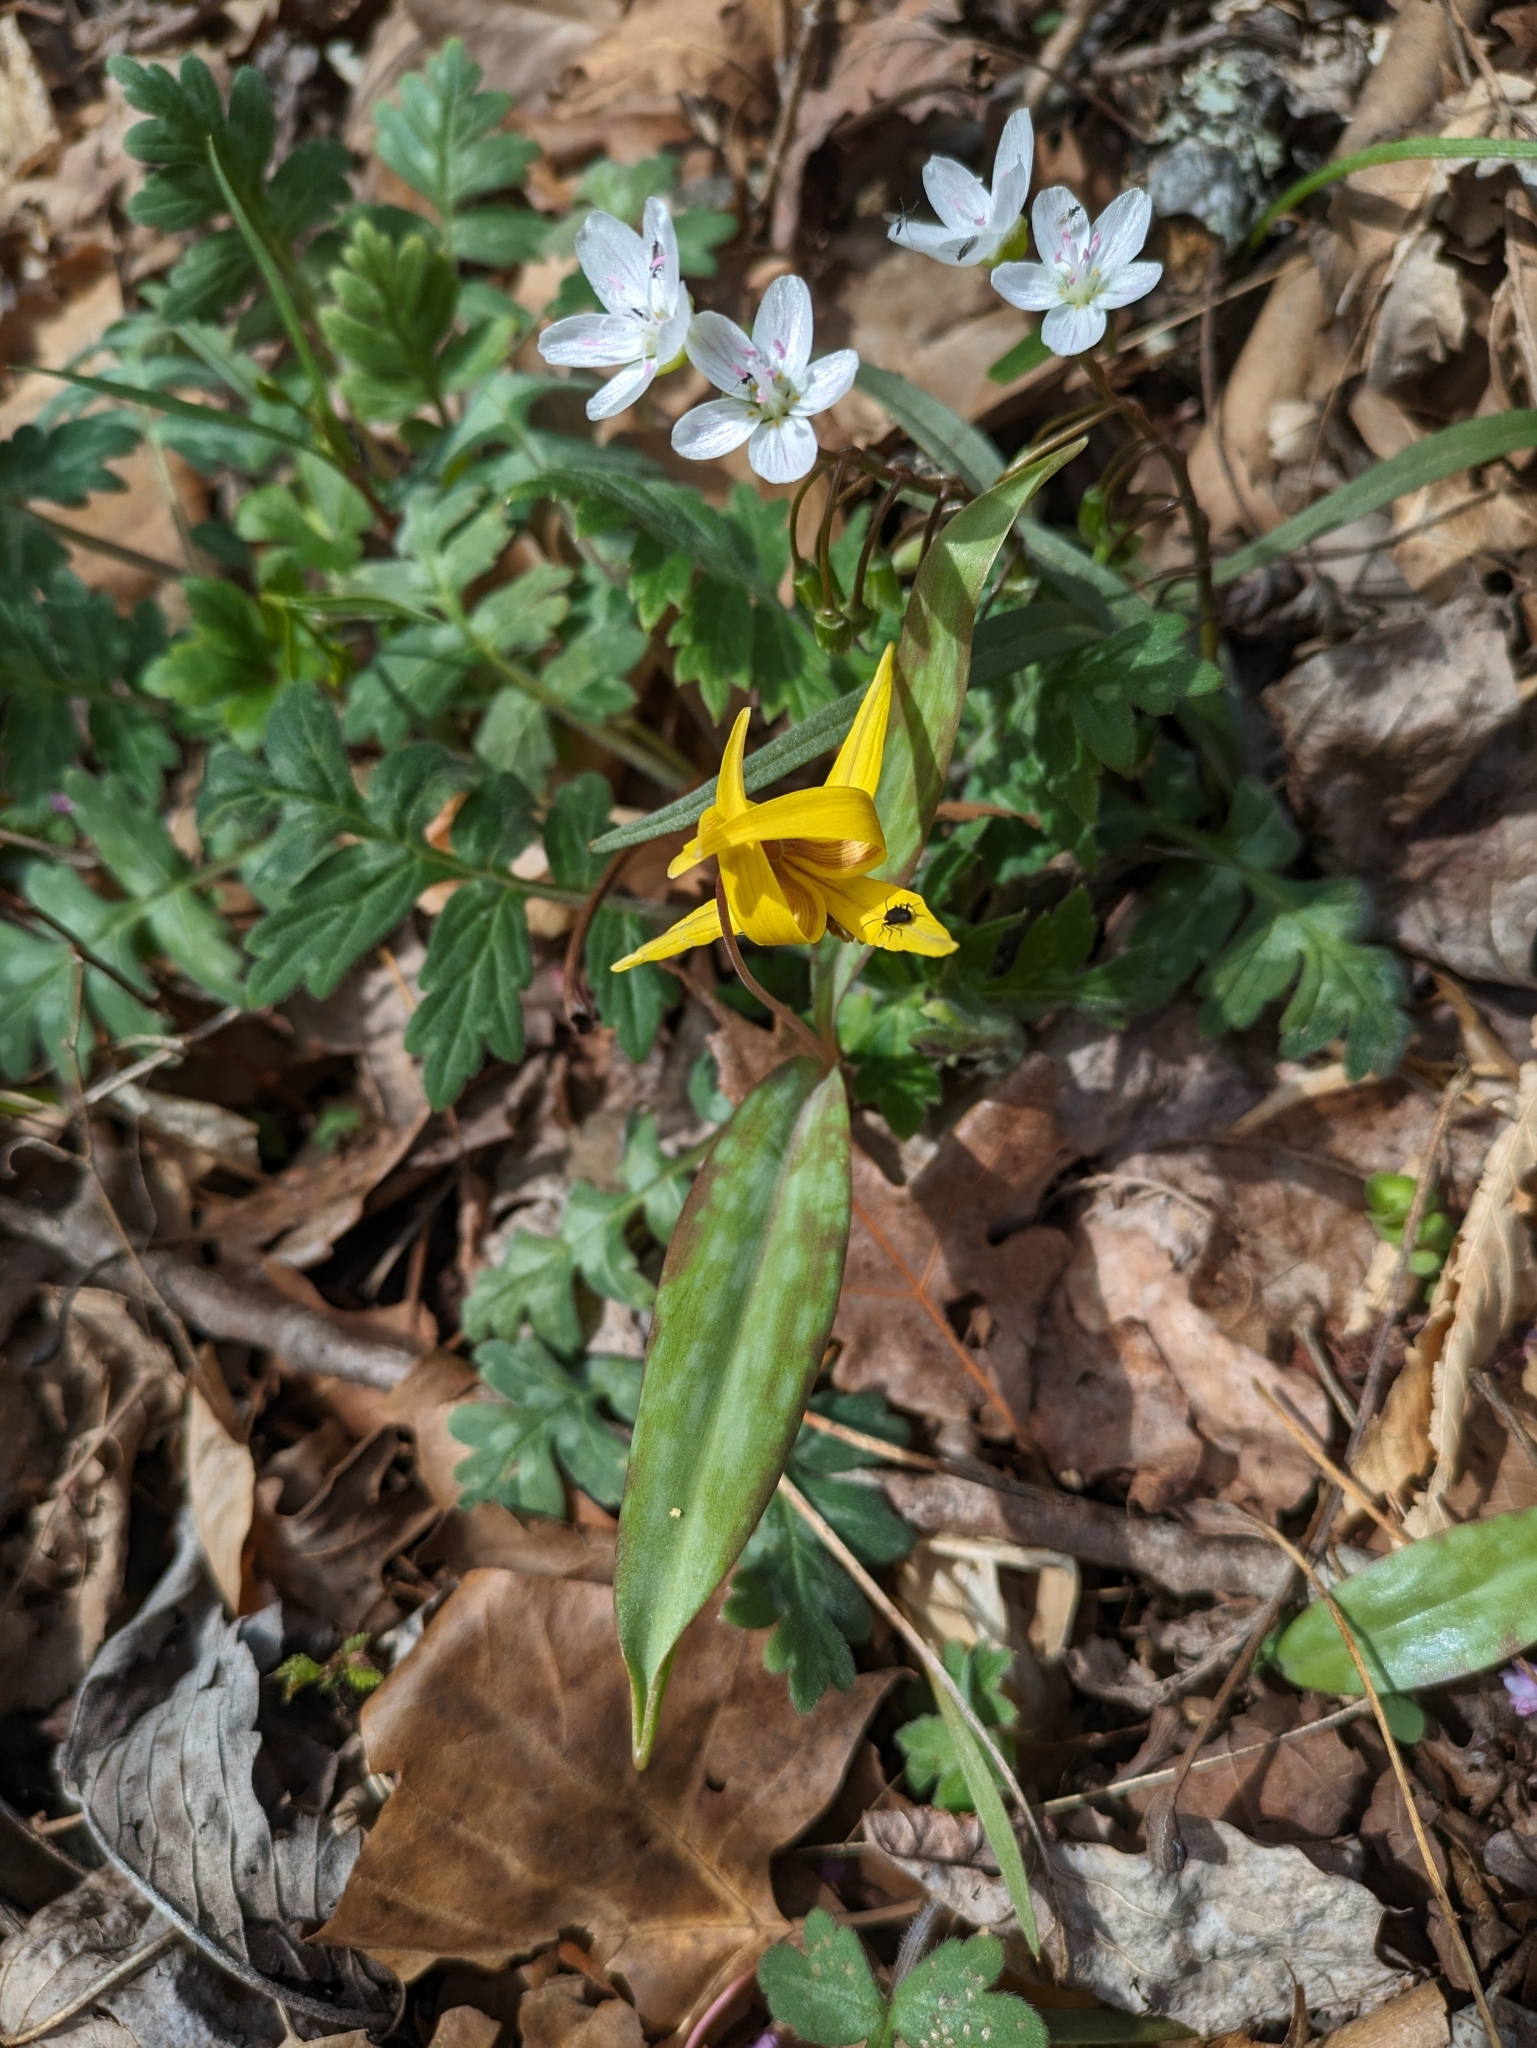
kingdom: Plantae
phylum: Tracheophyta
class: Liliopsida
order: Liliales
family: Liliaceae
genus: Erythronium
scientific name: Erythronium americanum
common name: Yellow adder's-tongue
